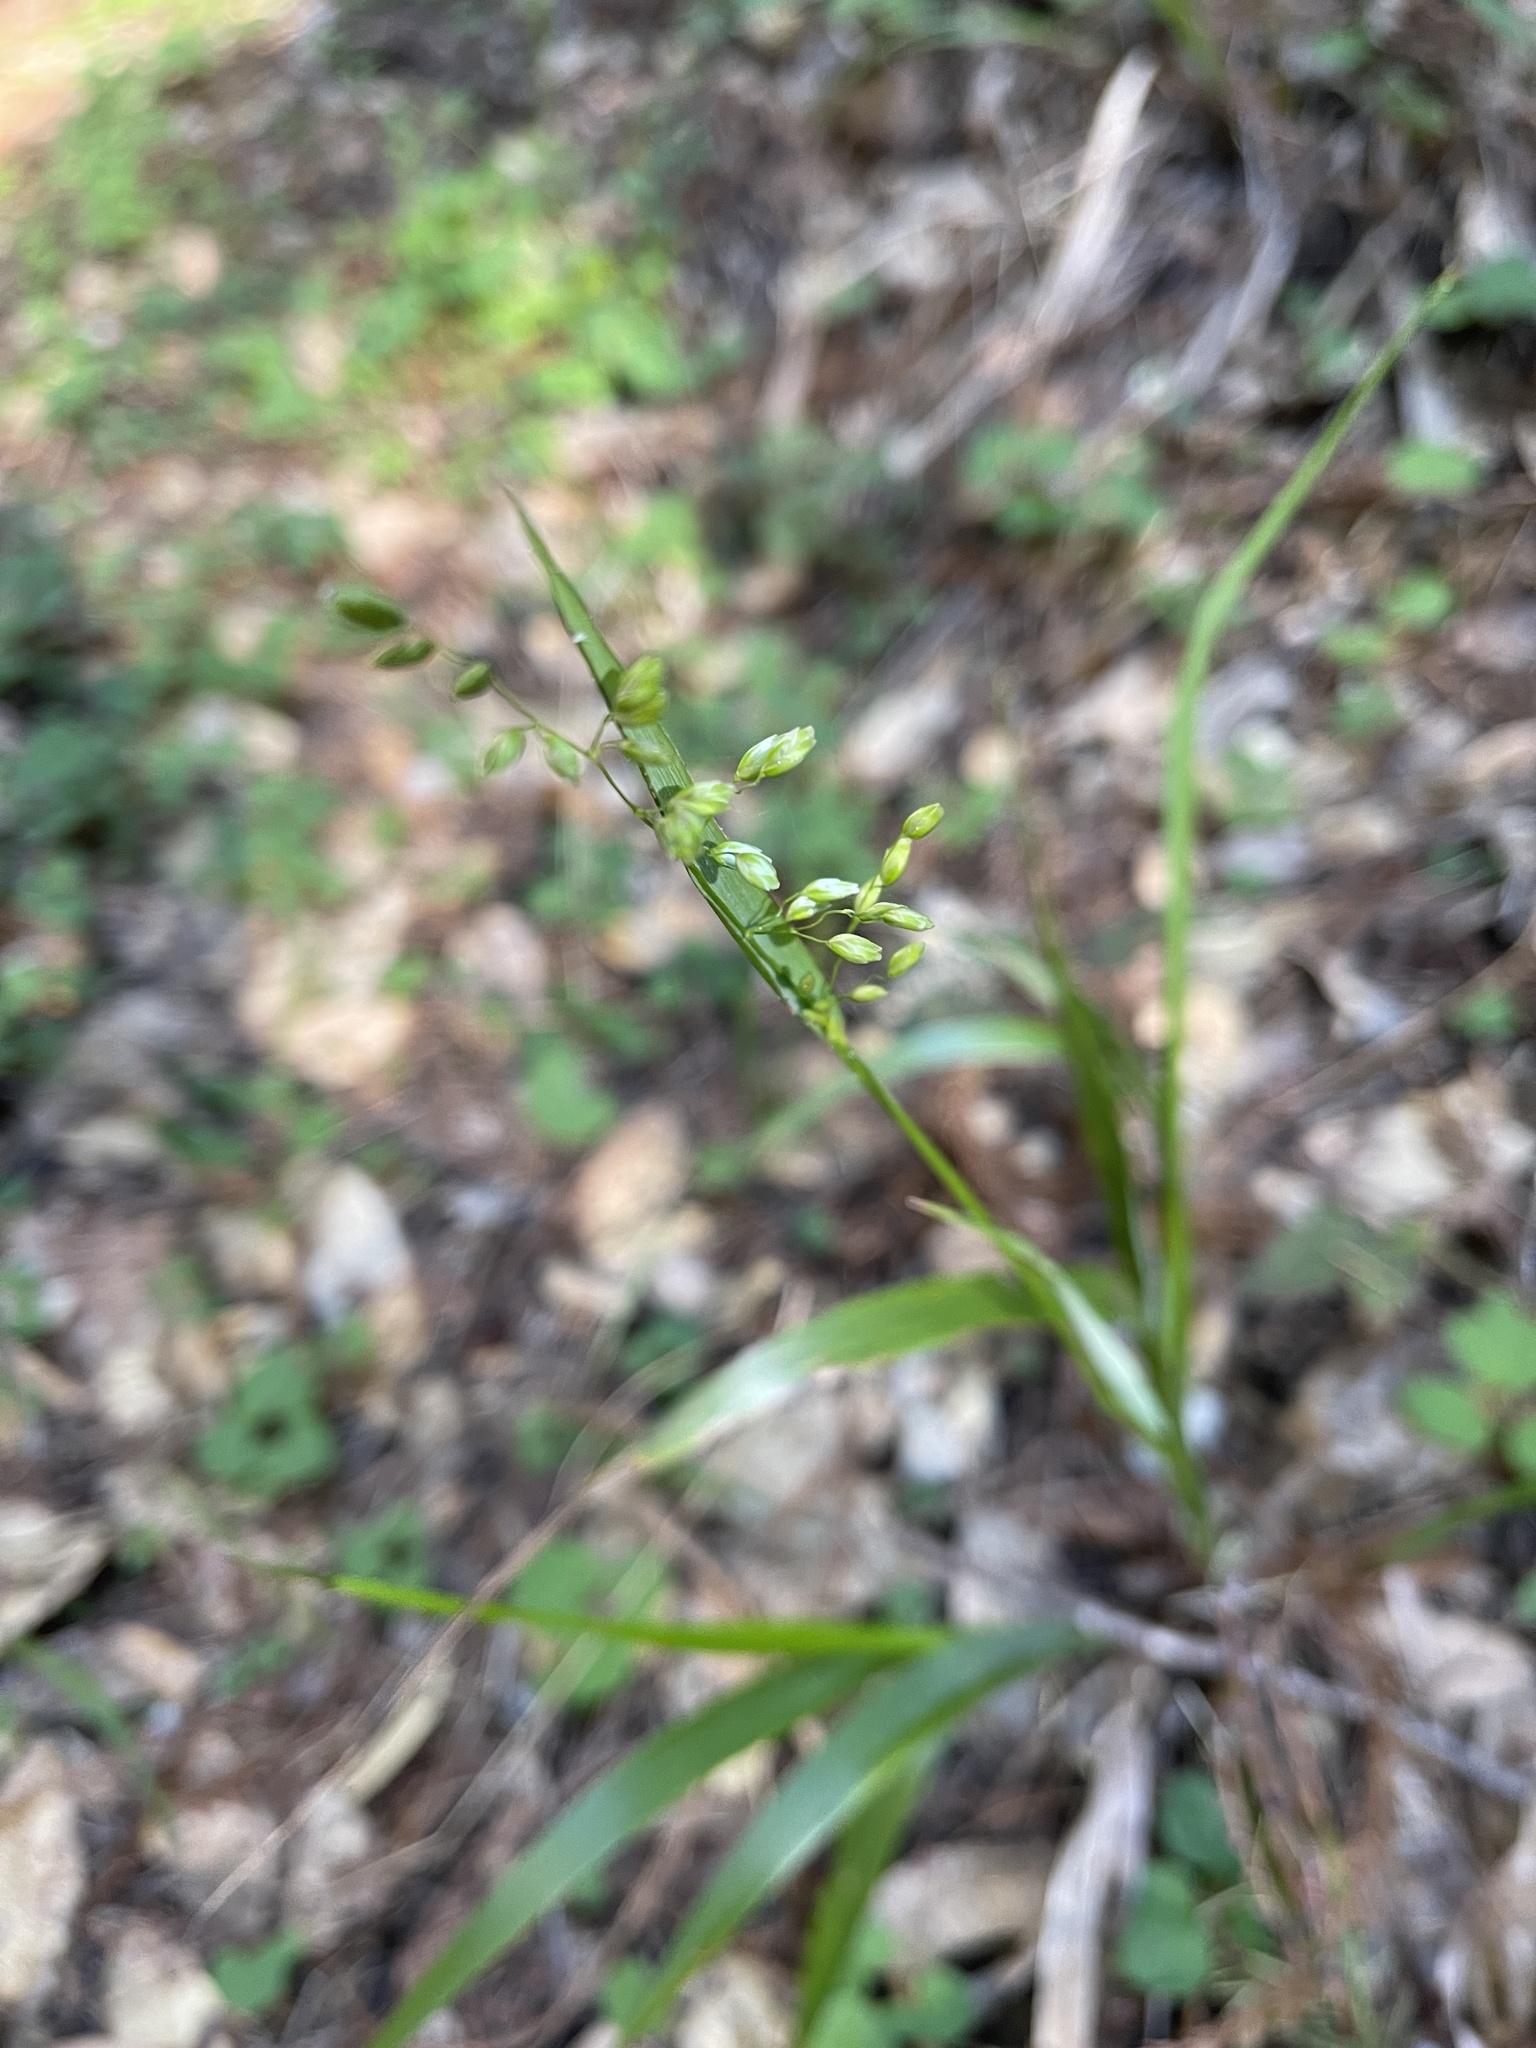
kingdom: Plantae
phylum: Tracheophyta
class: Liliopsida
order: Poales
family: Poaceae
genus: Anthoxanthum
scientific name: Anthoxanthum occidentale
